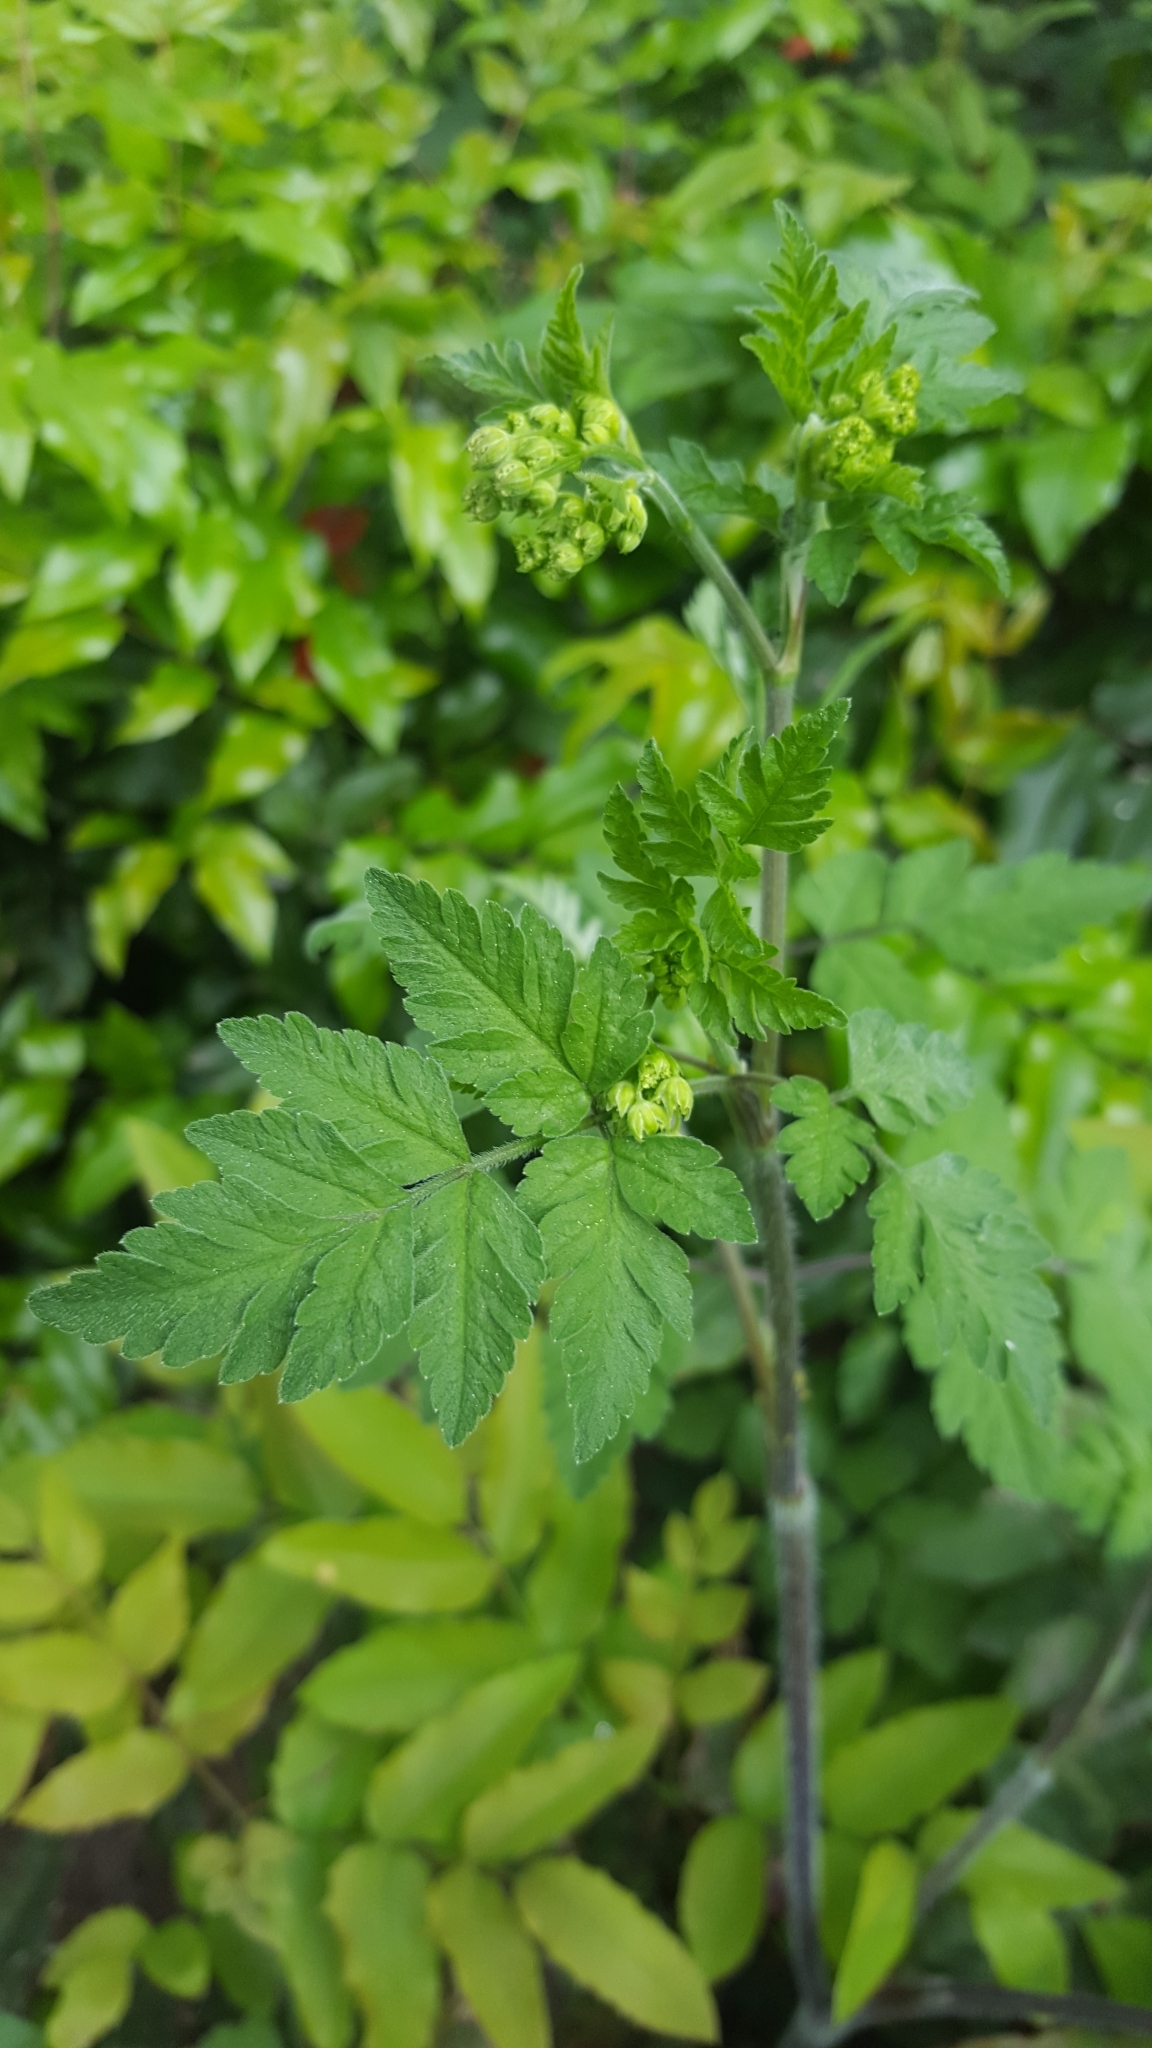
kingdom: Plantae
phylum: Tracheophyta
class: Magnoliopsida
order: Apiales
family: Apiaceae
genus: Chaerophyllum
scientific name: Chaerophyllum temulum
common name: Rough chervil
